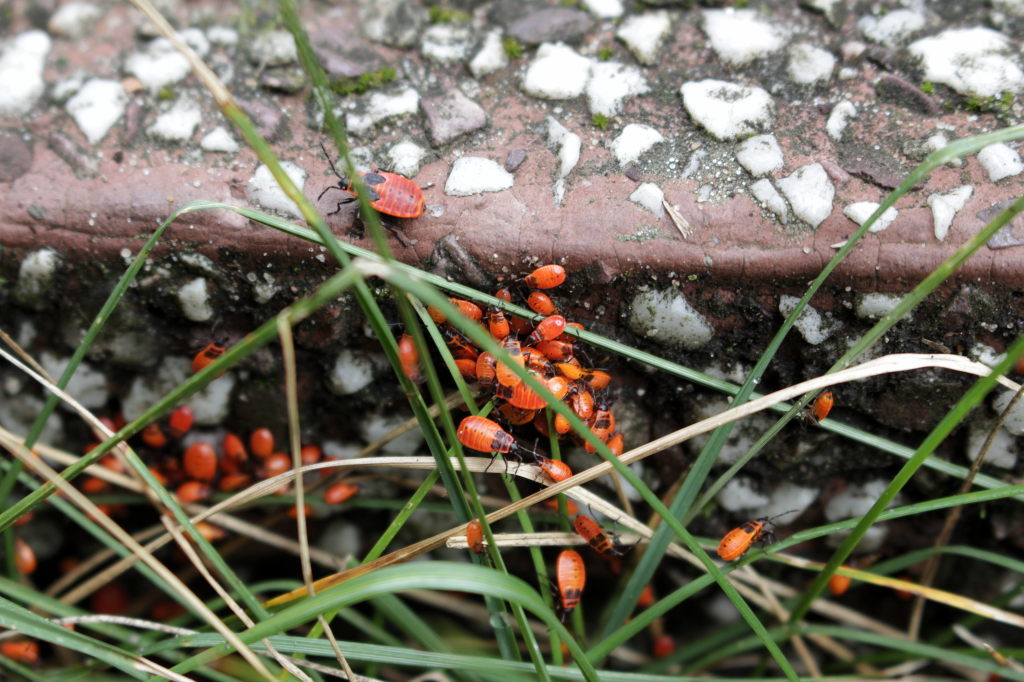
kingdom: Animalia
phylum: Arthropoda
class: Insecta
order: Hemiptera
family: Pyrrhocoridae
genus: Pyrrhocoris
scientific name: Pyrrhocoris apterus
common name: Firebug
